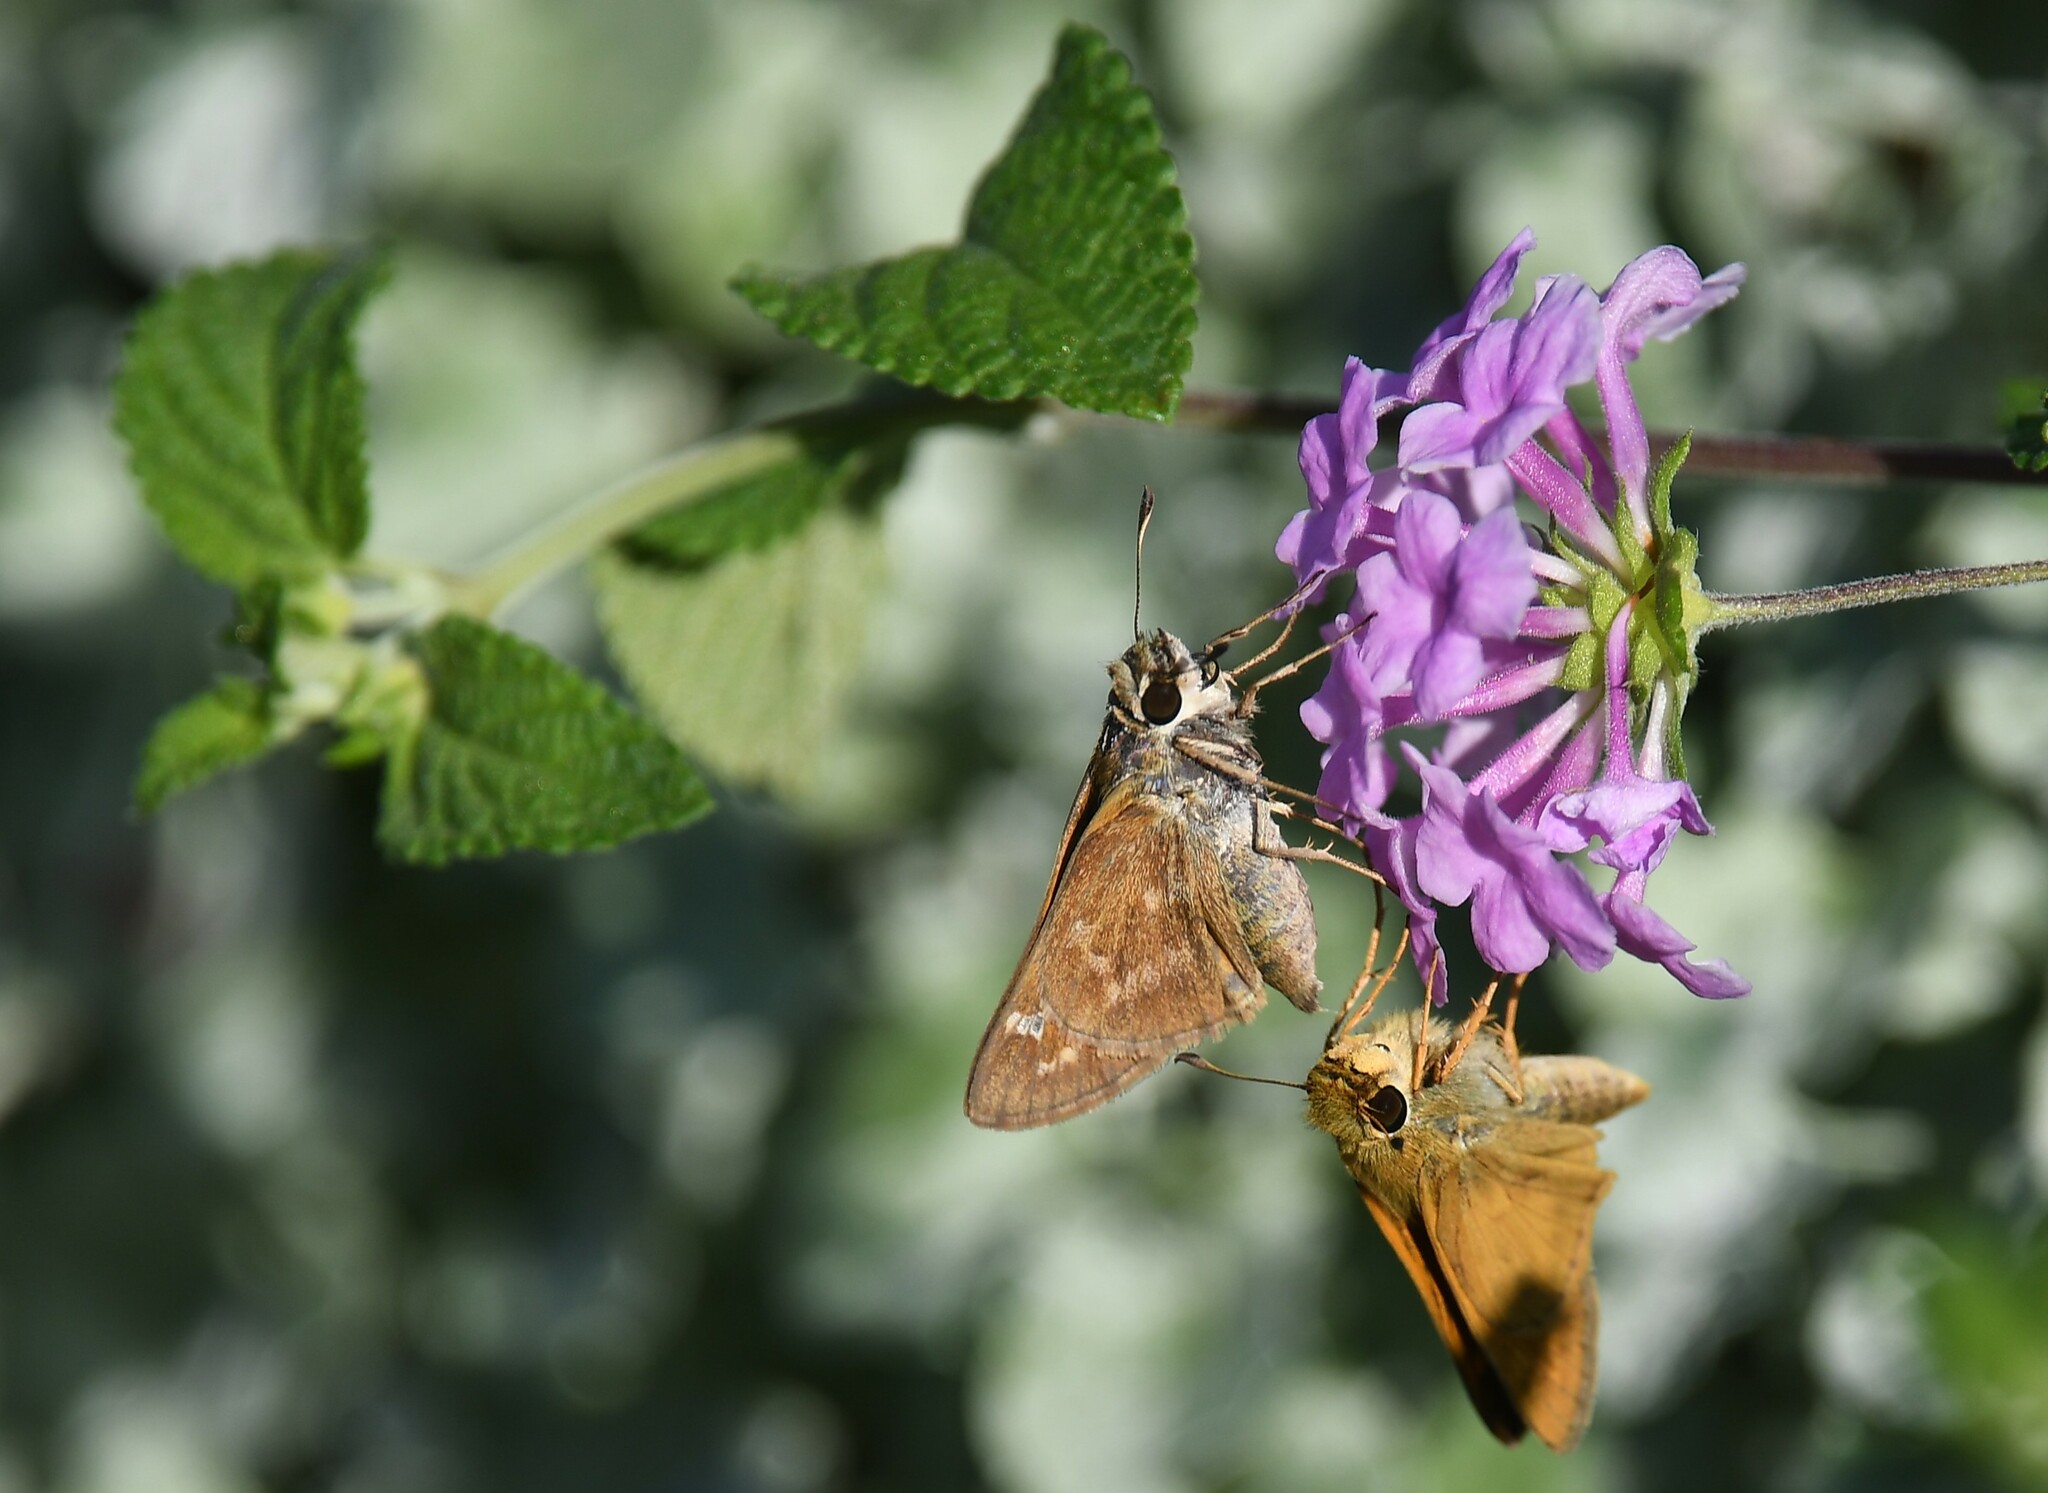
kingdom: Animalia
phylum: Arthropoda
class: Insecta
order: Lepidoptera
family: Hesperiidae
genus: Atalopedes
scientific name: Atalopedes
